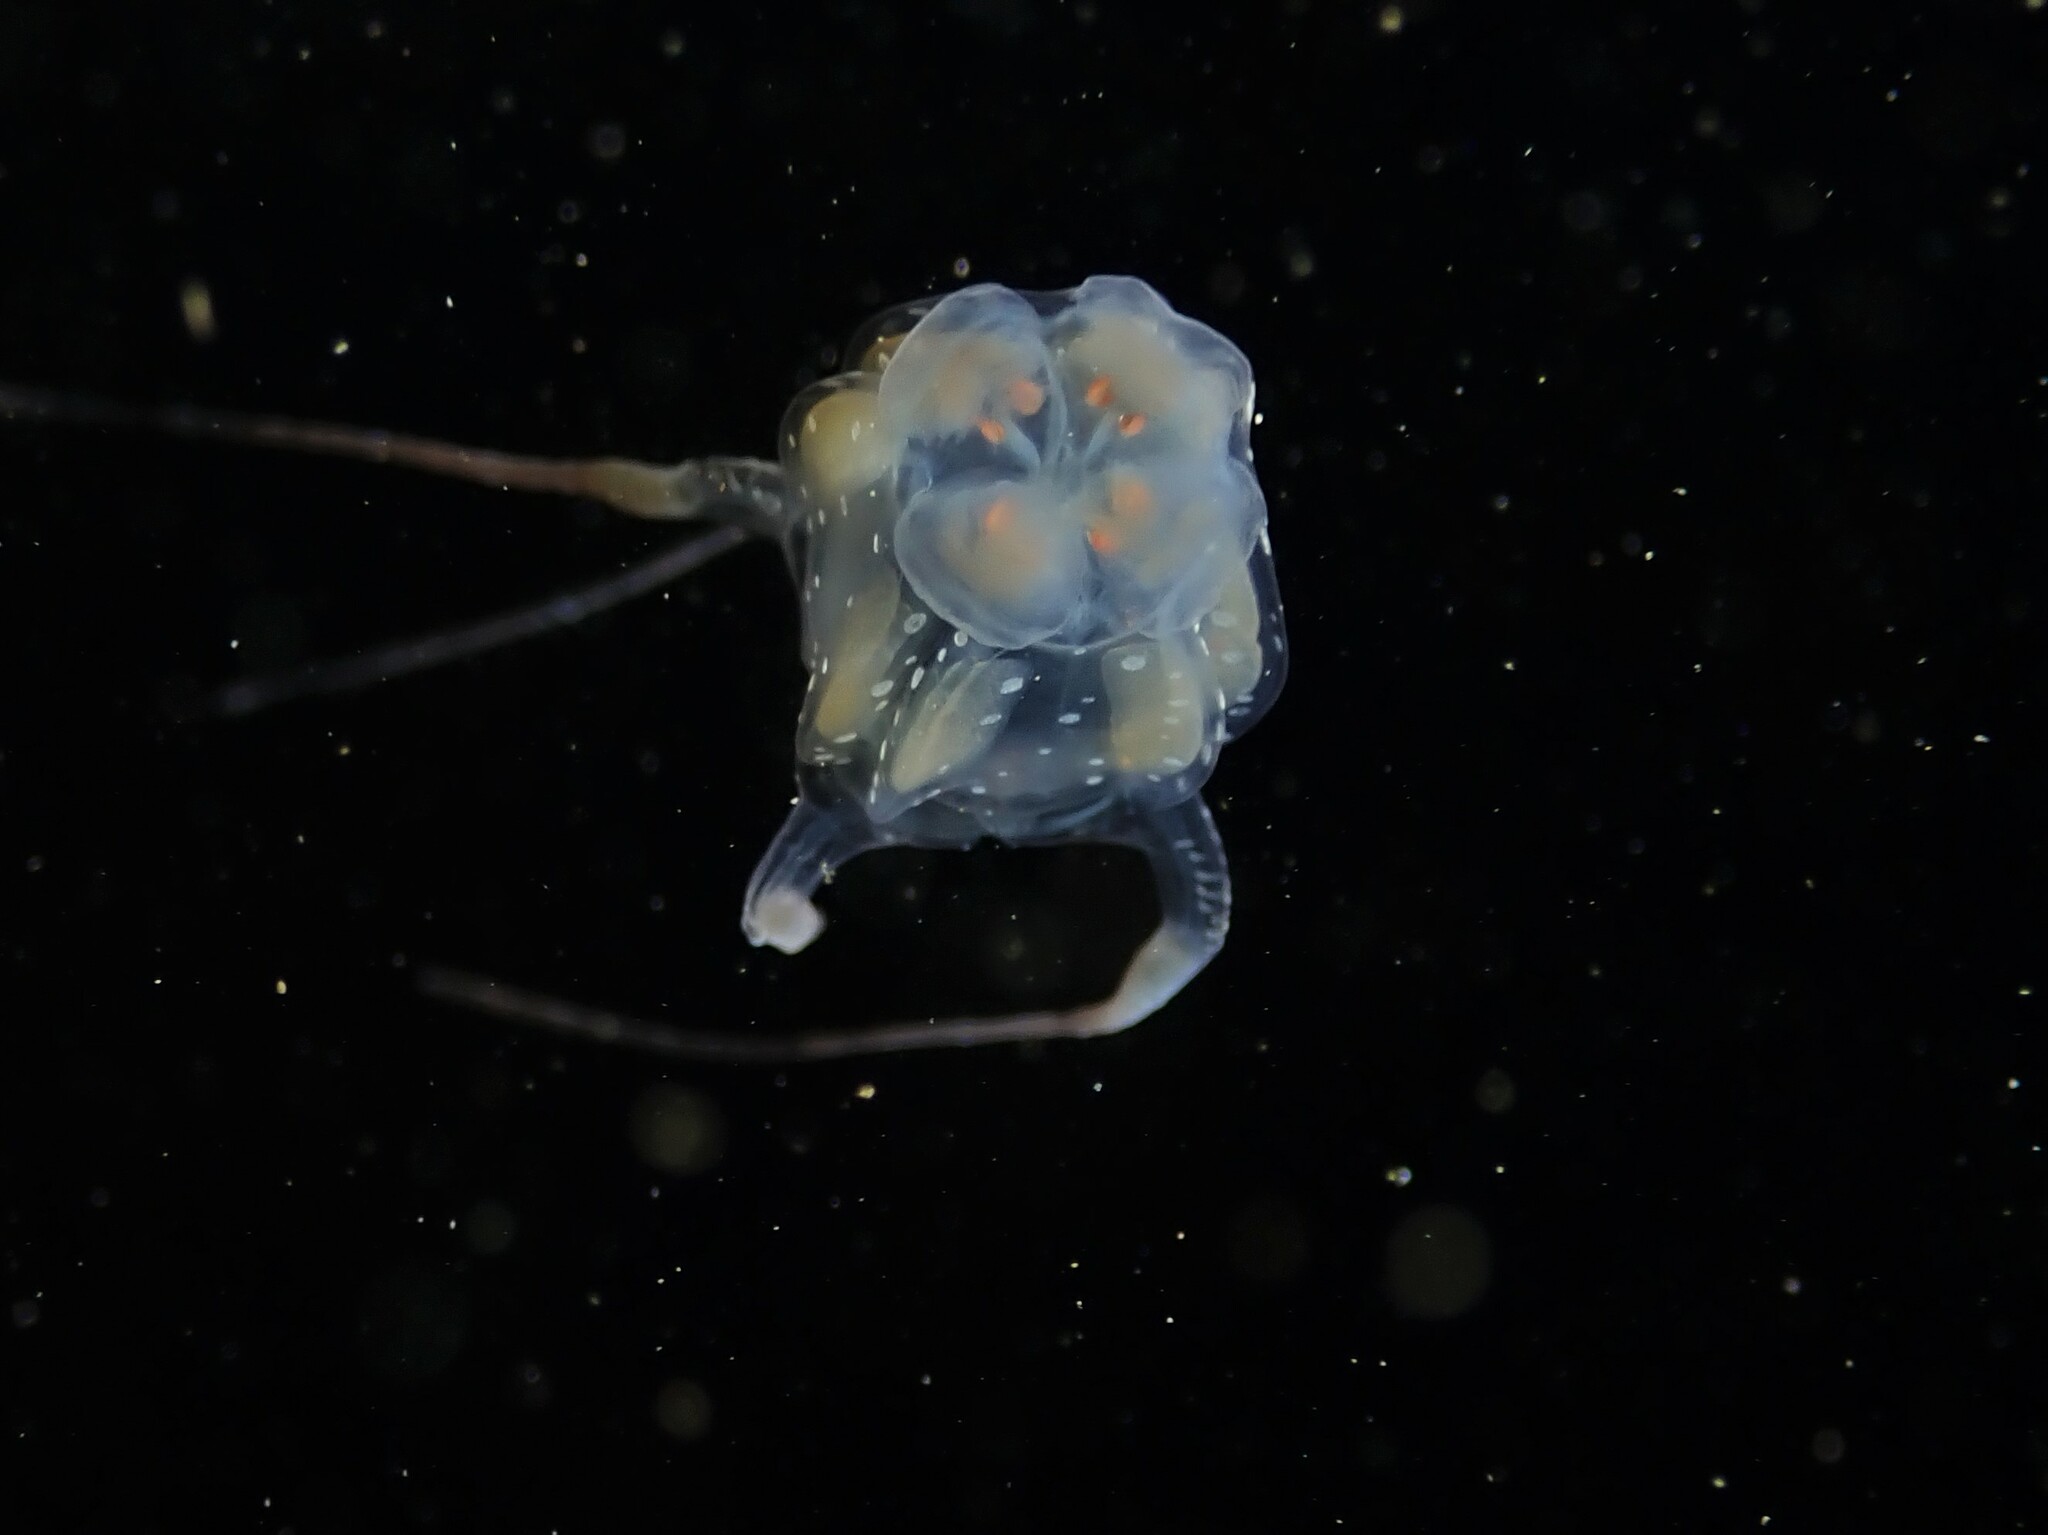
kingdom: Animalia
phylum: Cnidaria
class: Cubozoa
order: Carybdeida
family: Tripedaliidae
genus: Copula
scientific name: Copula sivickisi
